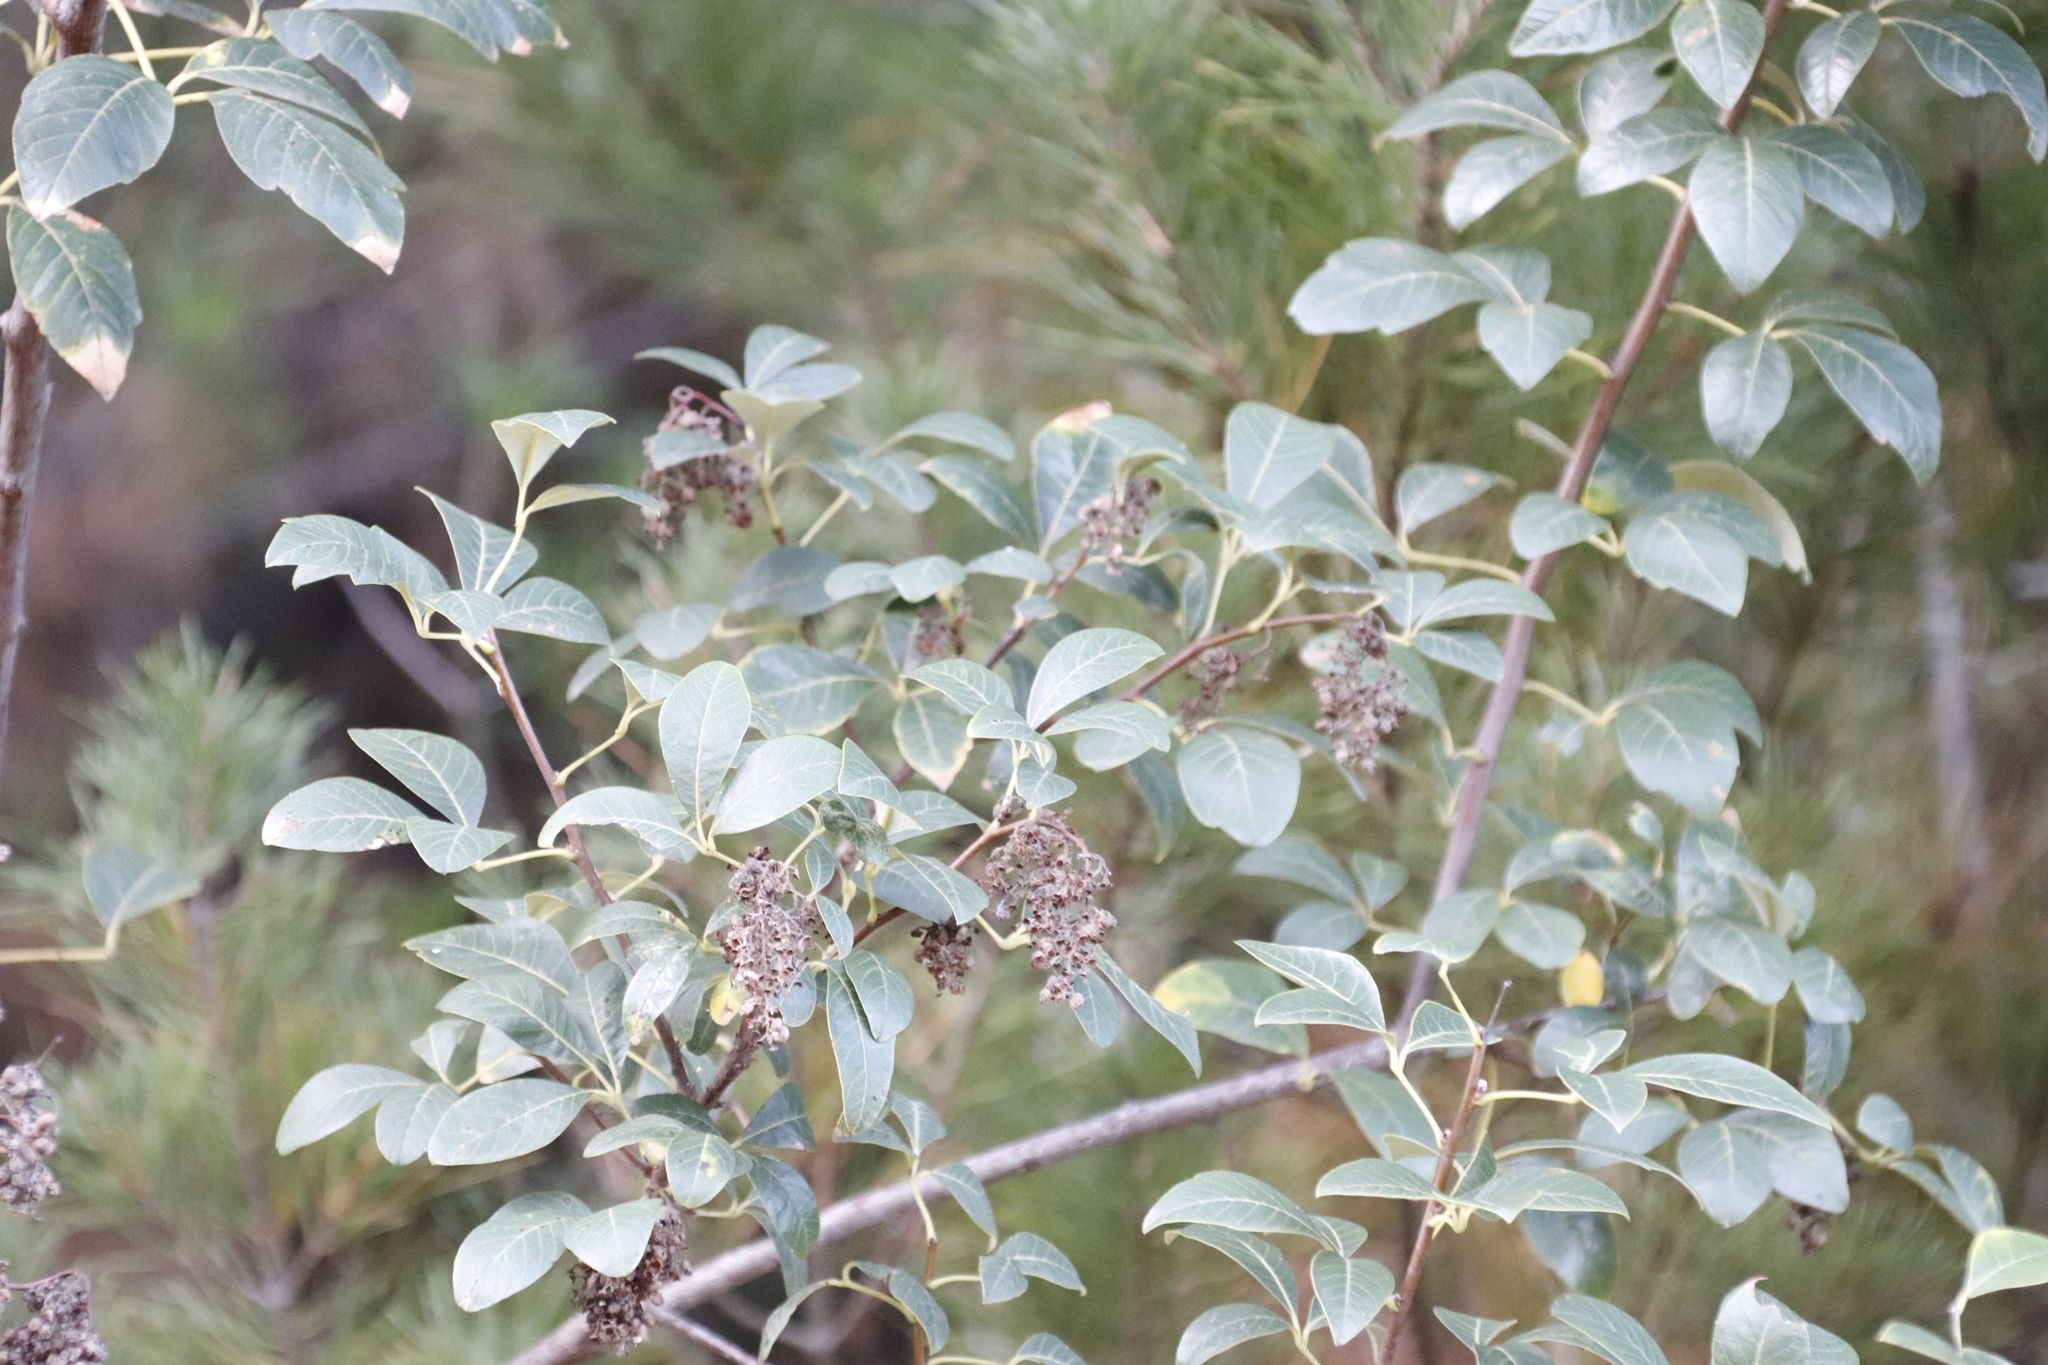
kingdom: Plantae
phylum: Tracheophyta
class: Magnoliopsida
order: Sapindales
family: Anacardiaceae
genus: Searsia
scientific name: Searsia tomentosa
